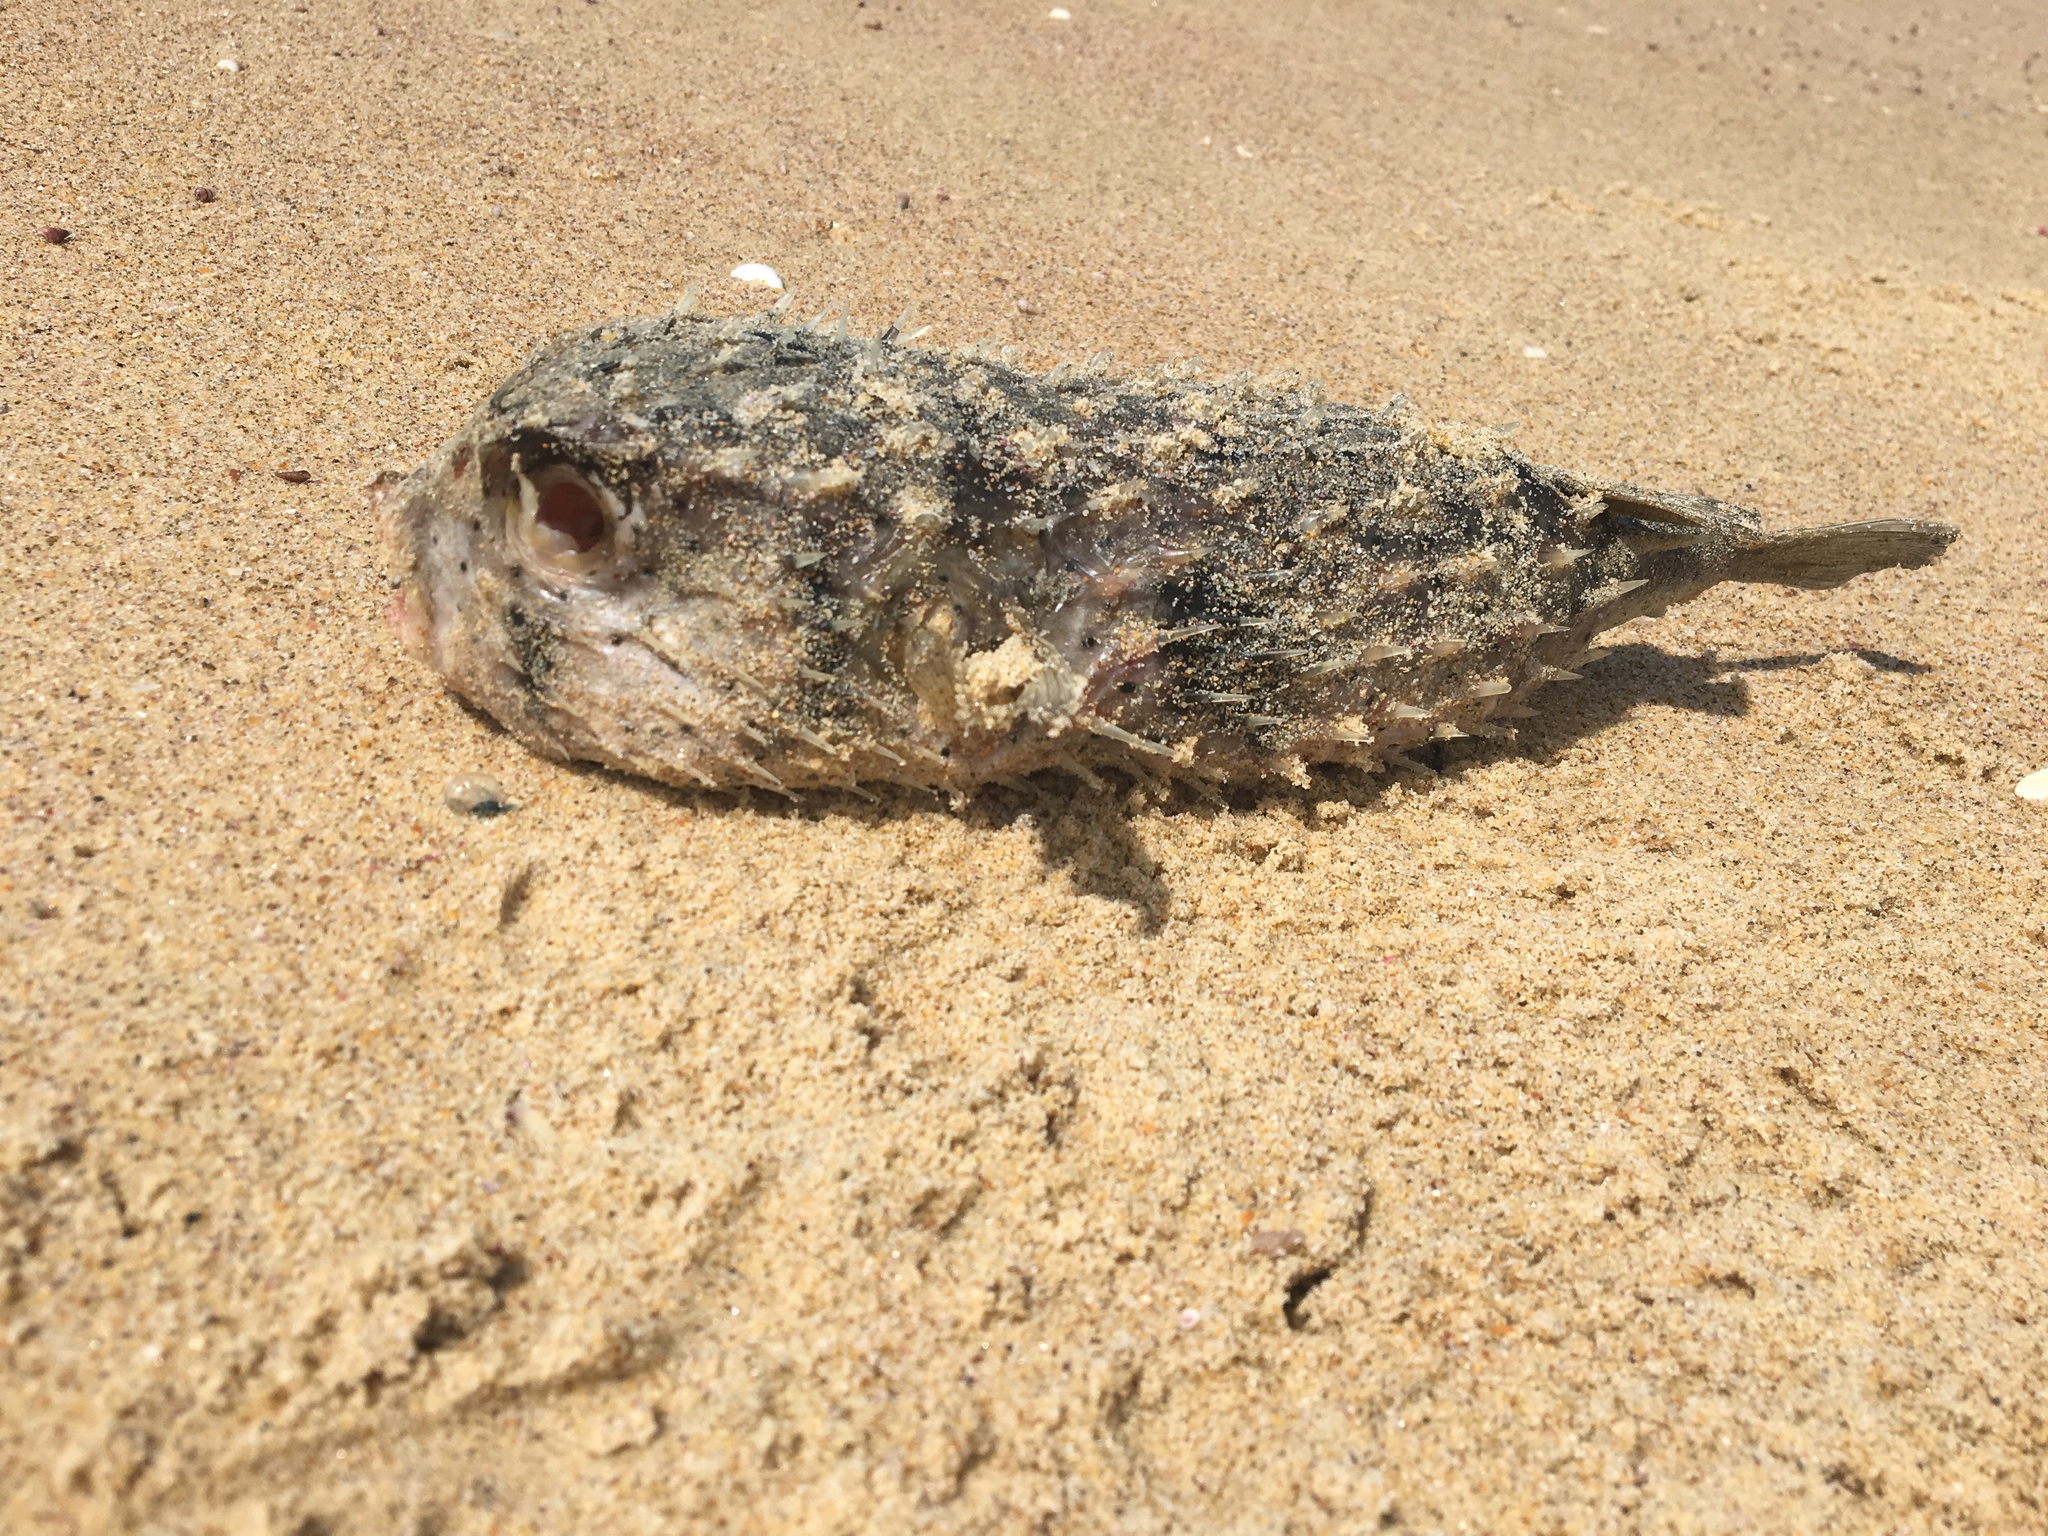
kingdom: Animalia
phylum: Chordata
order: Tetraodontiformes
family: Diodontidae
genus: Dicotylichthys
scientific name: Dicotylichthys punctulatus
